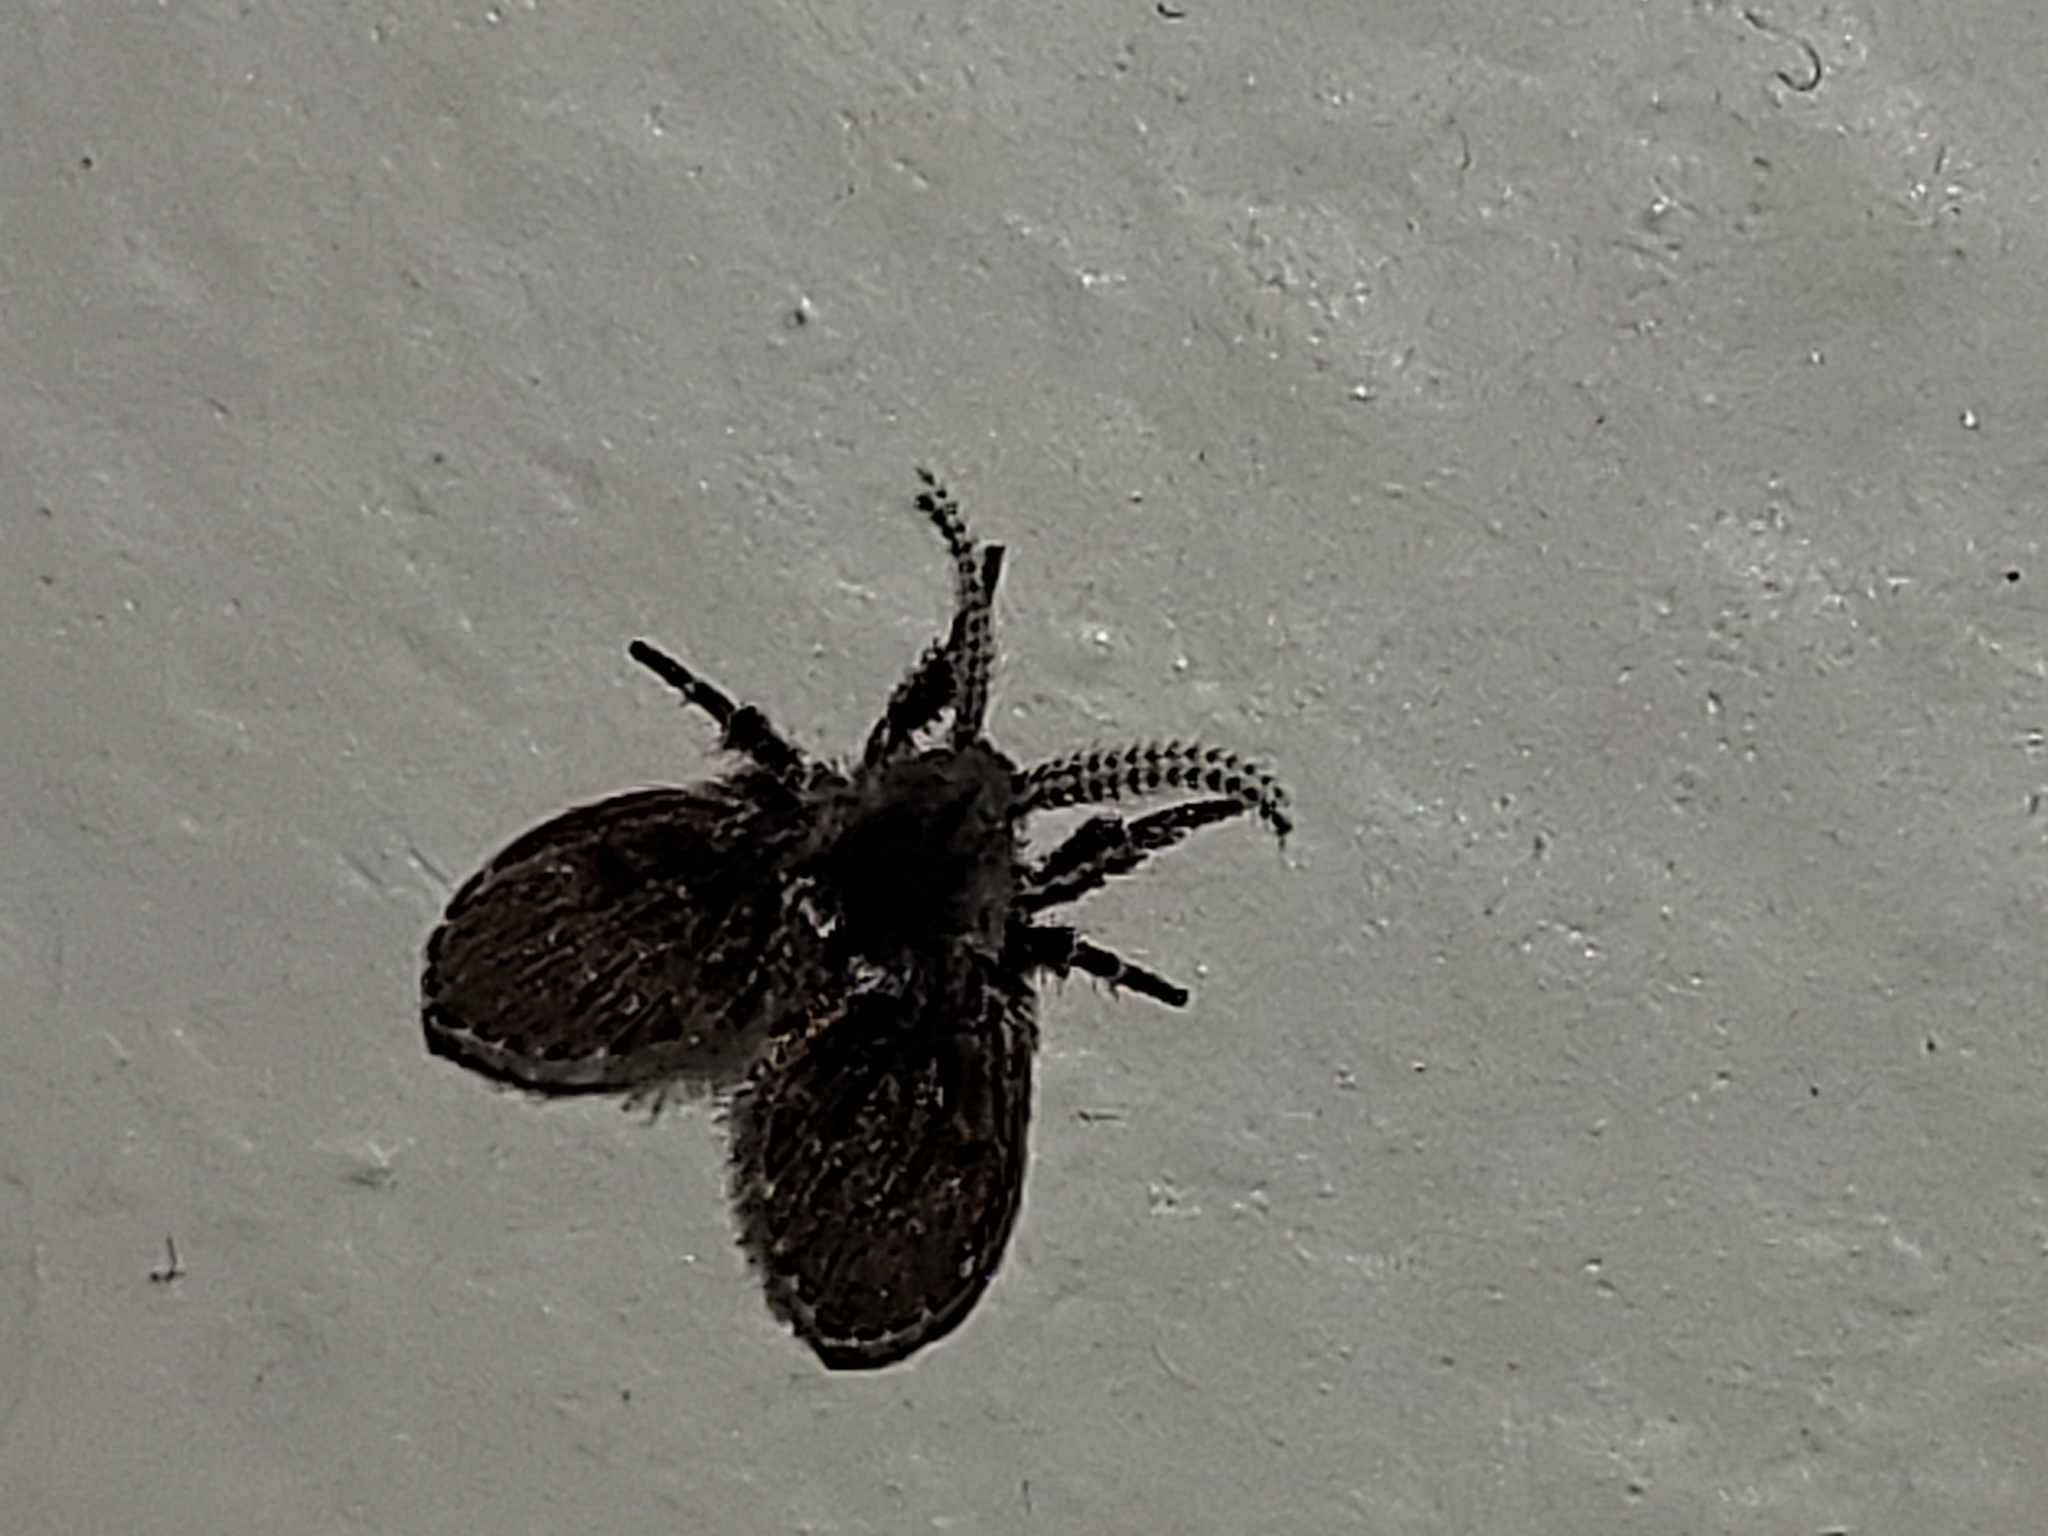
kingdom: Animalia
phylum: Arthropoda
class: Insecta
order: Diptera
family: Psychodidae
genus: Clogmia
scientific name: Clogmia albipunctatus
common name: White-spotted moth fly
